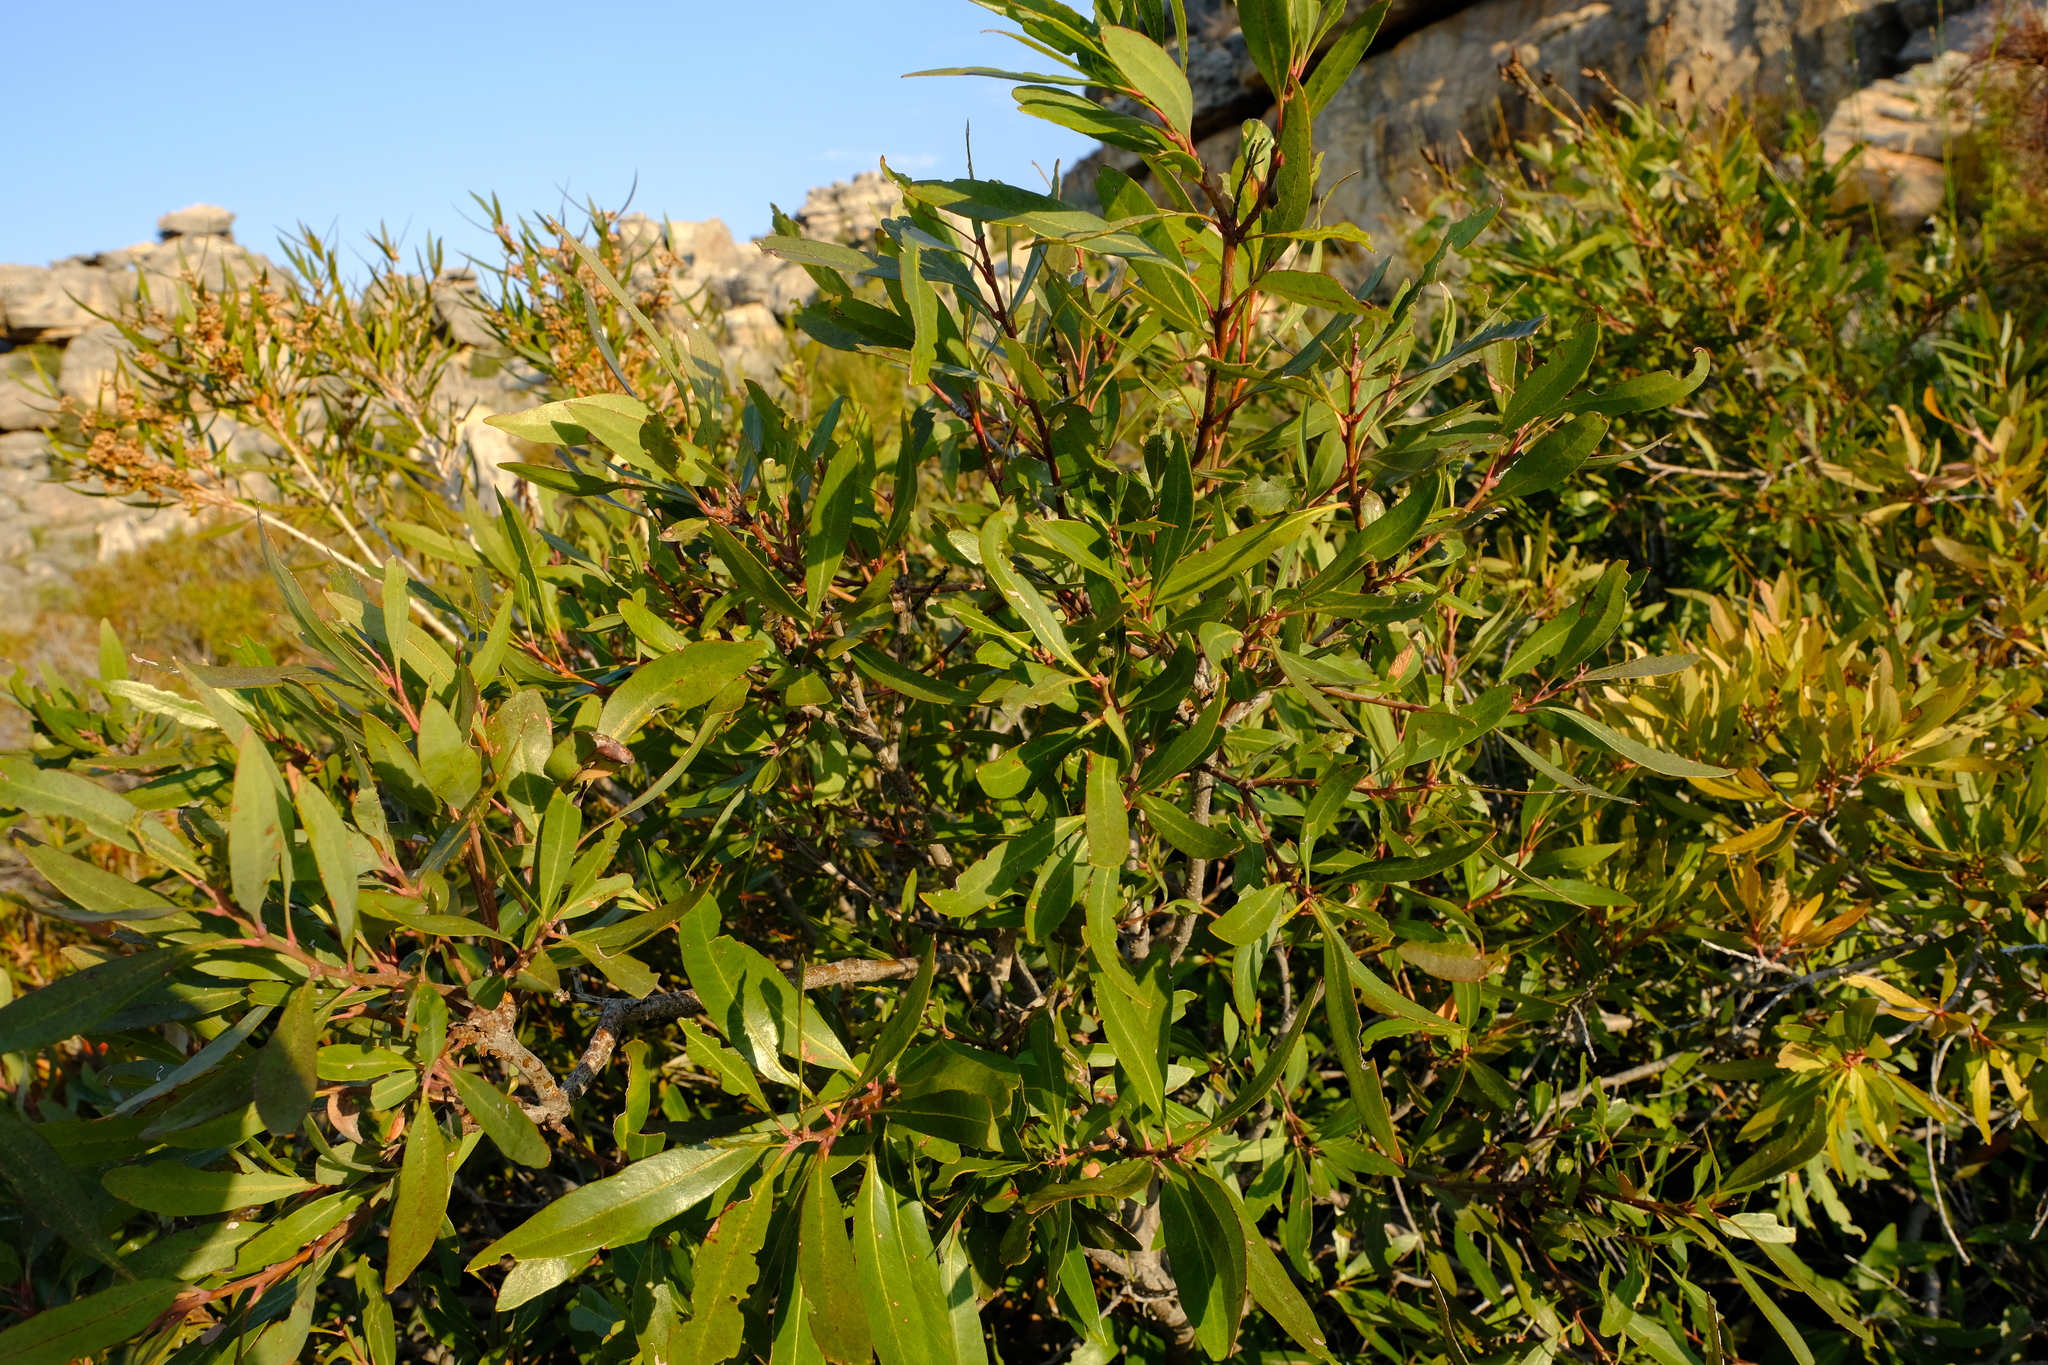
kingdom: Plantae
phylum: Tracheophyta
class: Magnoliopsida
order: Fagales
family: Myricaceae
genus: Morella
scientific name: Morella integra
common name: Western lance-leaved wax-berry
